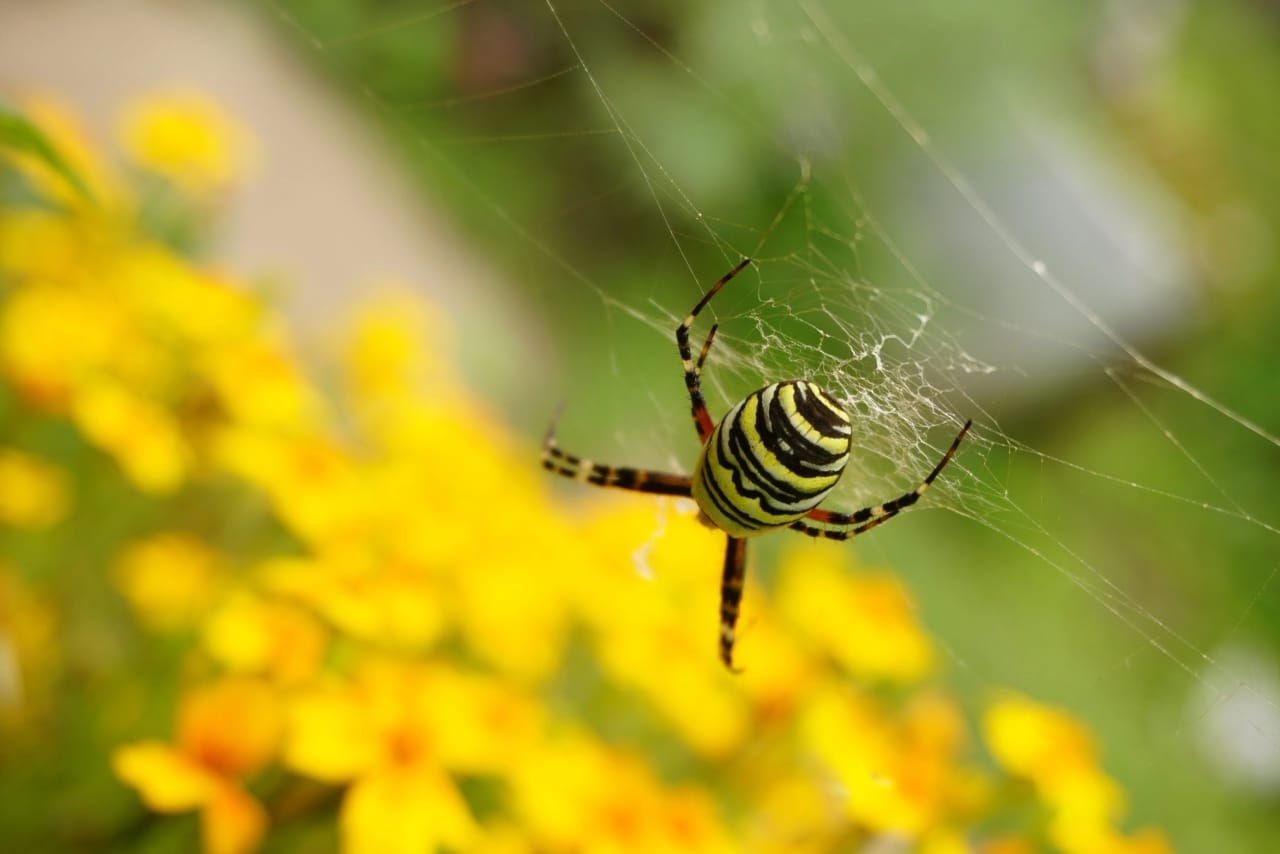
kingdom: Animalia
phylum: Arthropoda
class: Arachnida
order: Araneae
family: Araneidae
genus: Argiope
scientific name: Argiope bruennichi
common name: Wasp spider
